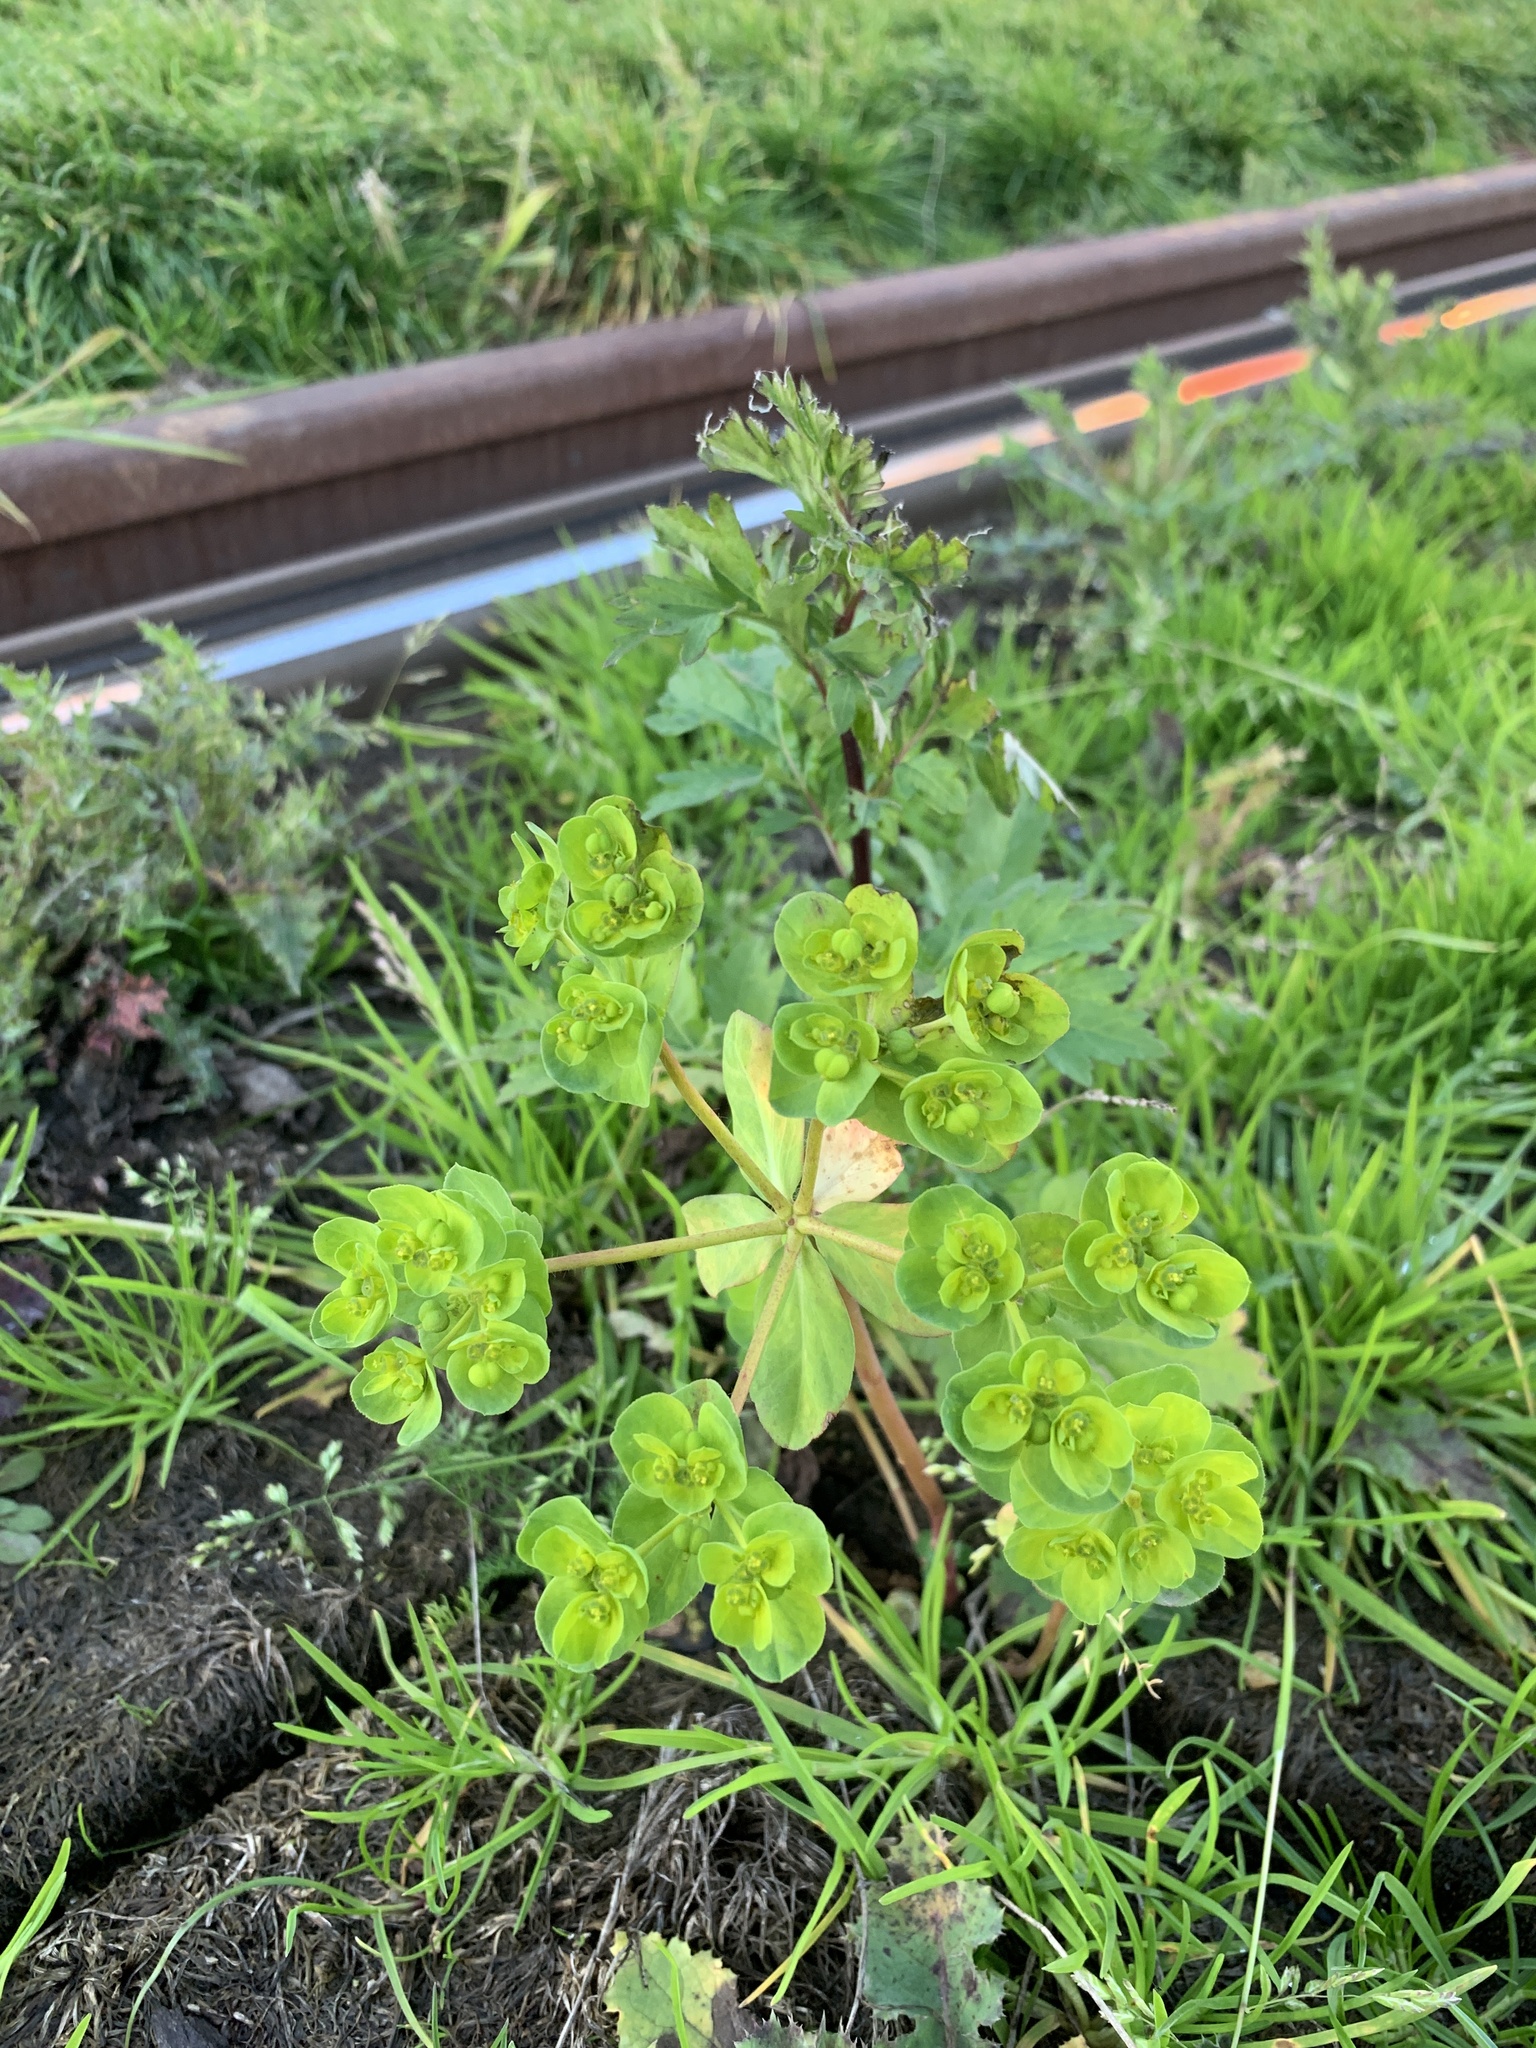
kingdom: Plantae
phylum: Tracheophyta
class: Magnoliopsida
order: Malpighiales
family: Euphorbiaceae
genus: Euphorbia
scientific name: Euphorbia helioscopia
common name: Sun spurge
